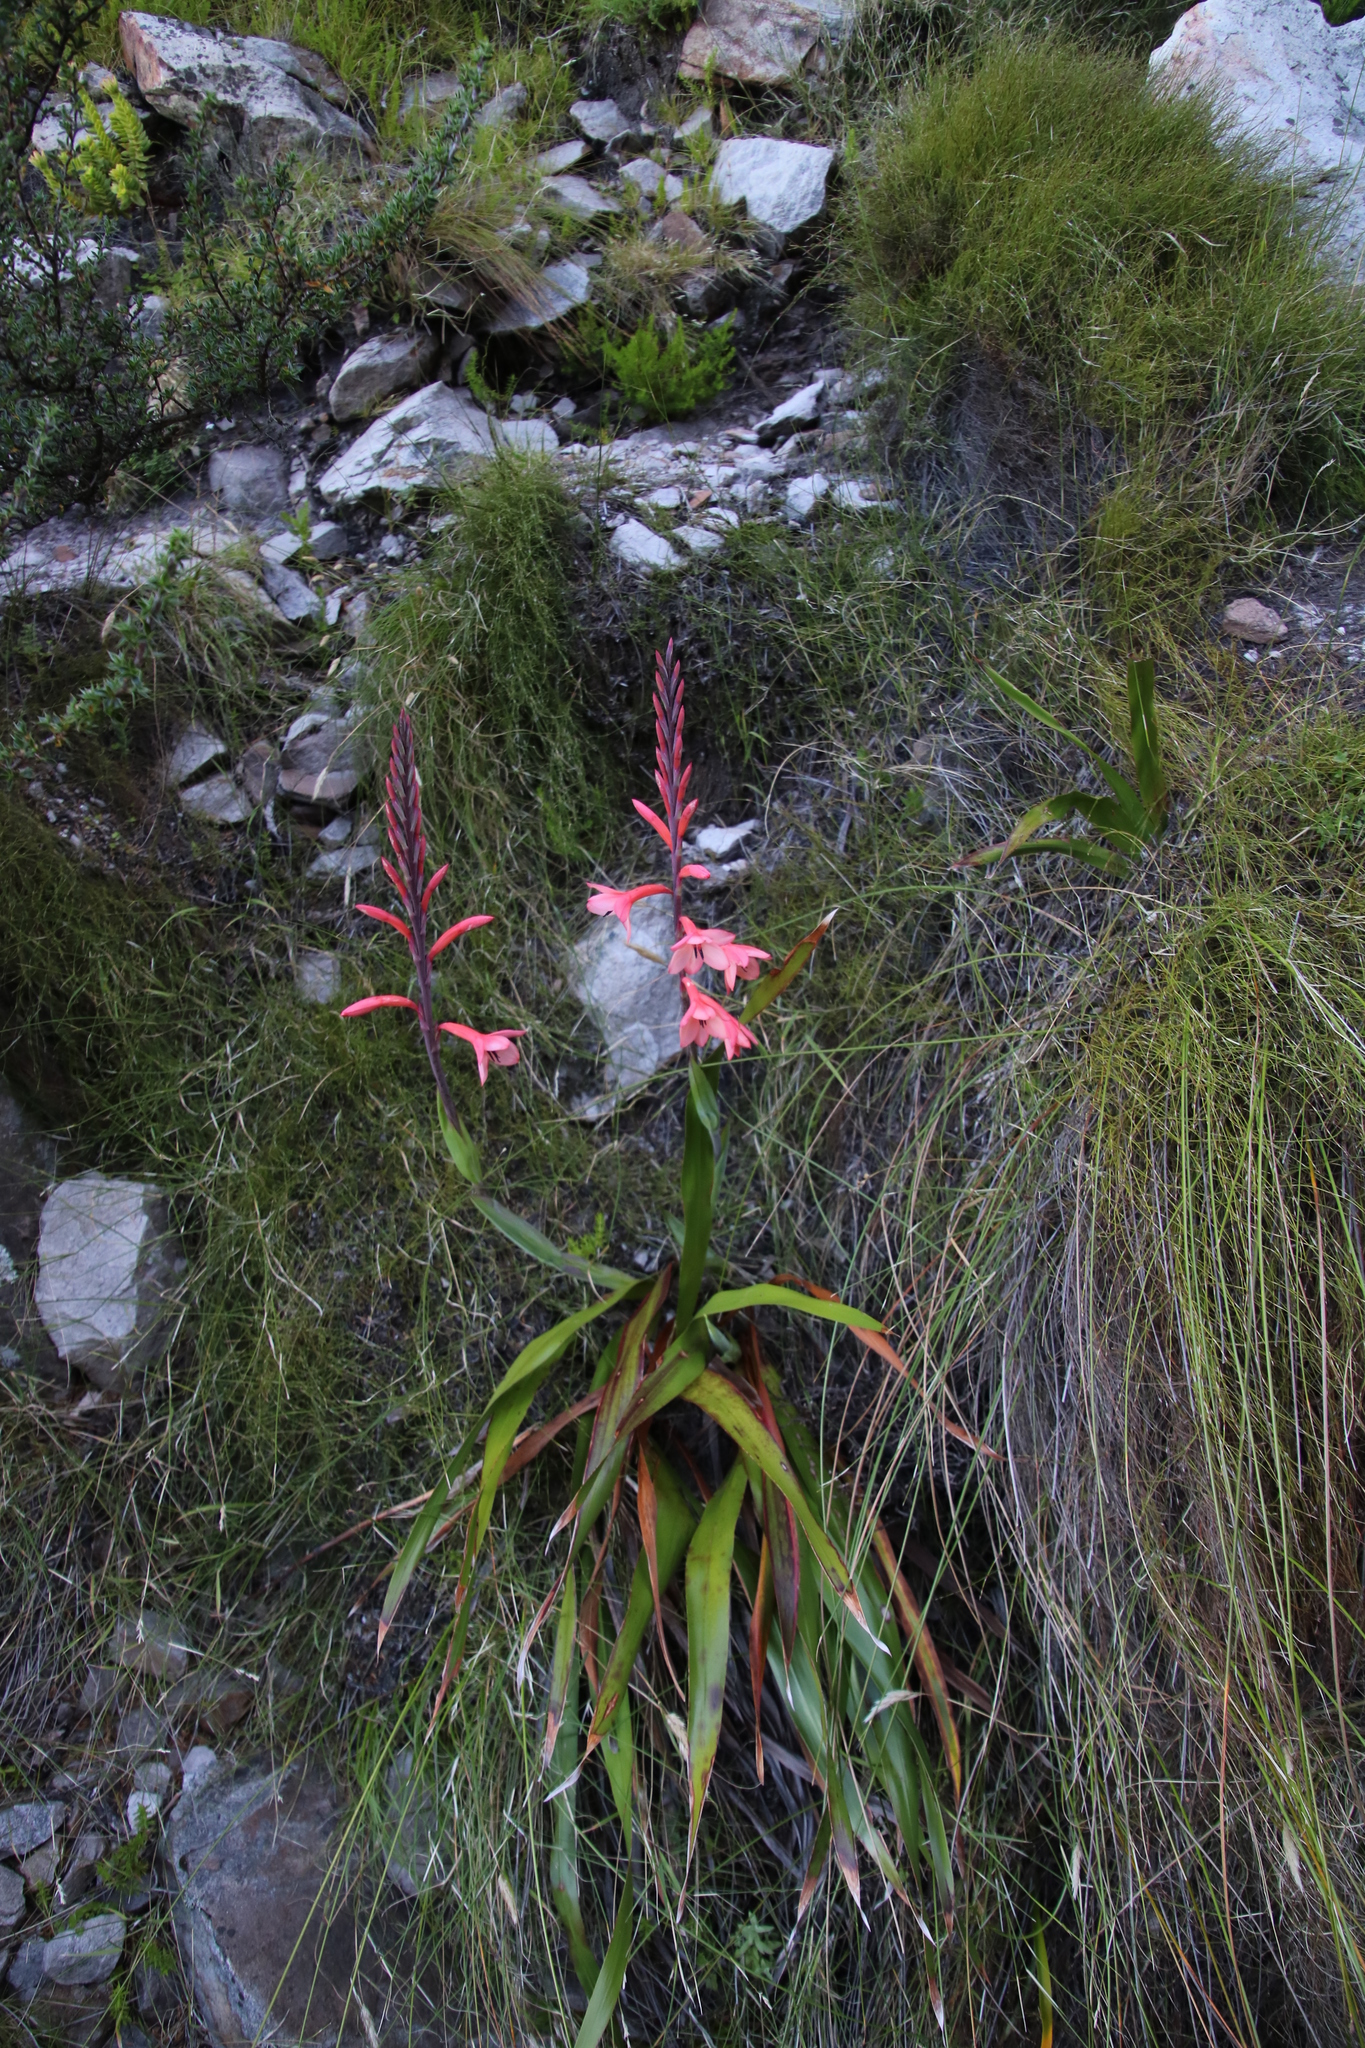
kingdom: Plantae
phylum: Tracheophyta
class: Liliopsida
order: Asparagales
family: Iridaceae
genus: Watsonia
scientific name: Watsonia tabularis
